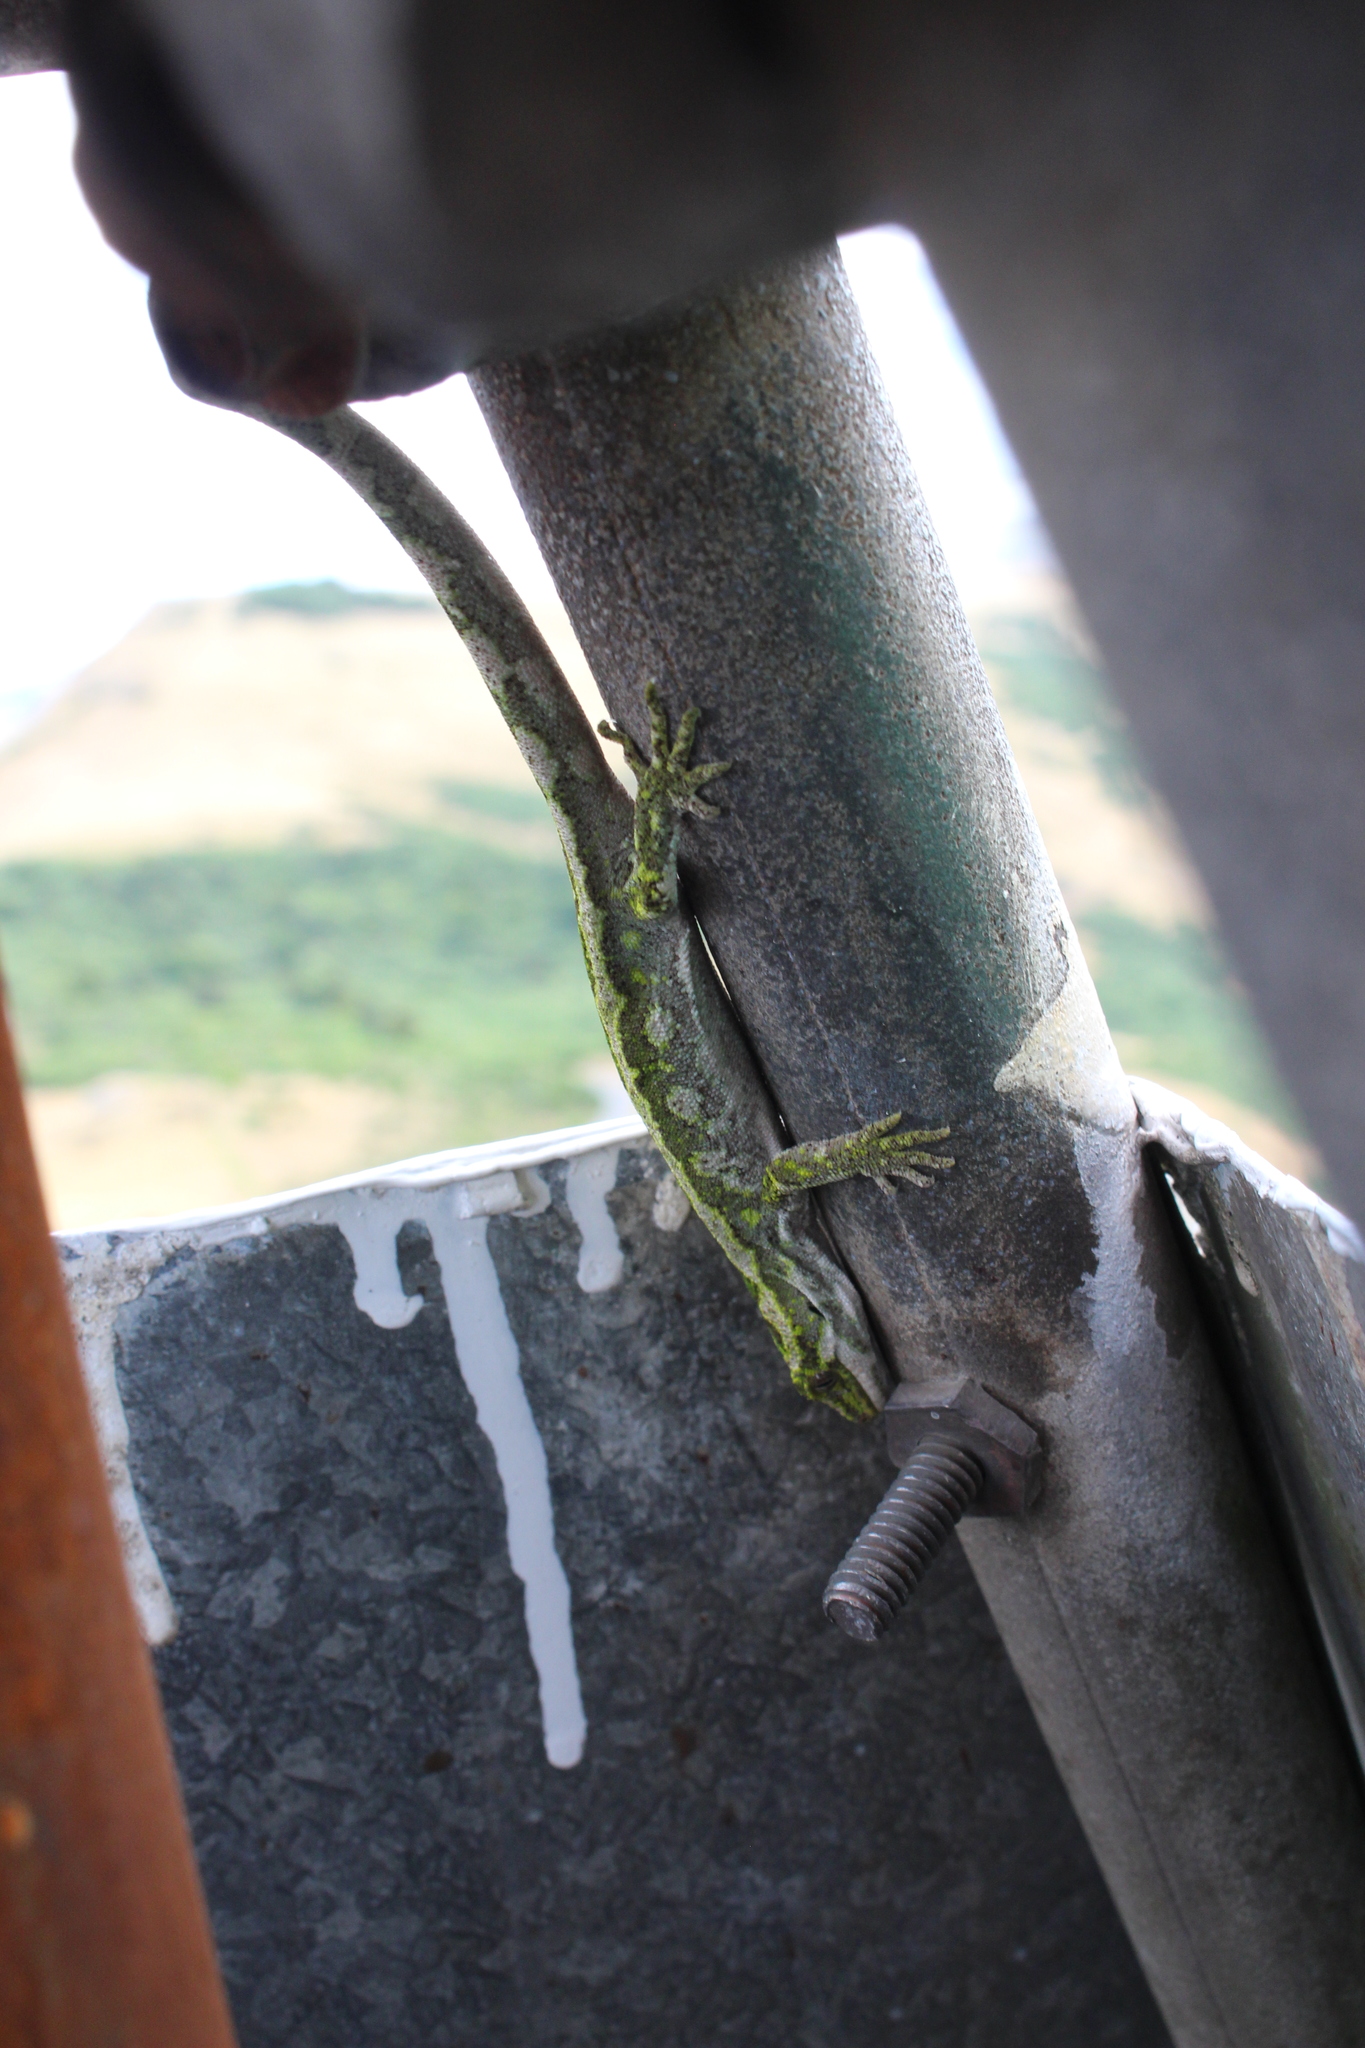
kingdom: Animalia
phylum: Chordata
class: Squamata
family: Diplodactylidae
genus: Naultinus
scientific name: Naultinus gemmeus
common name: Jewelled gecko
